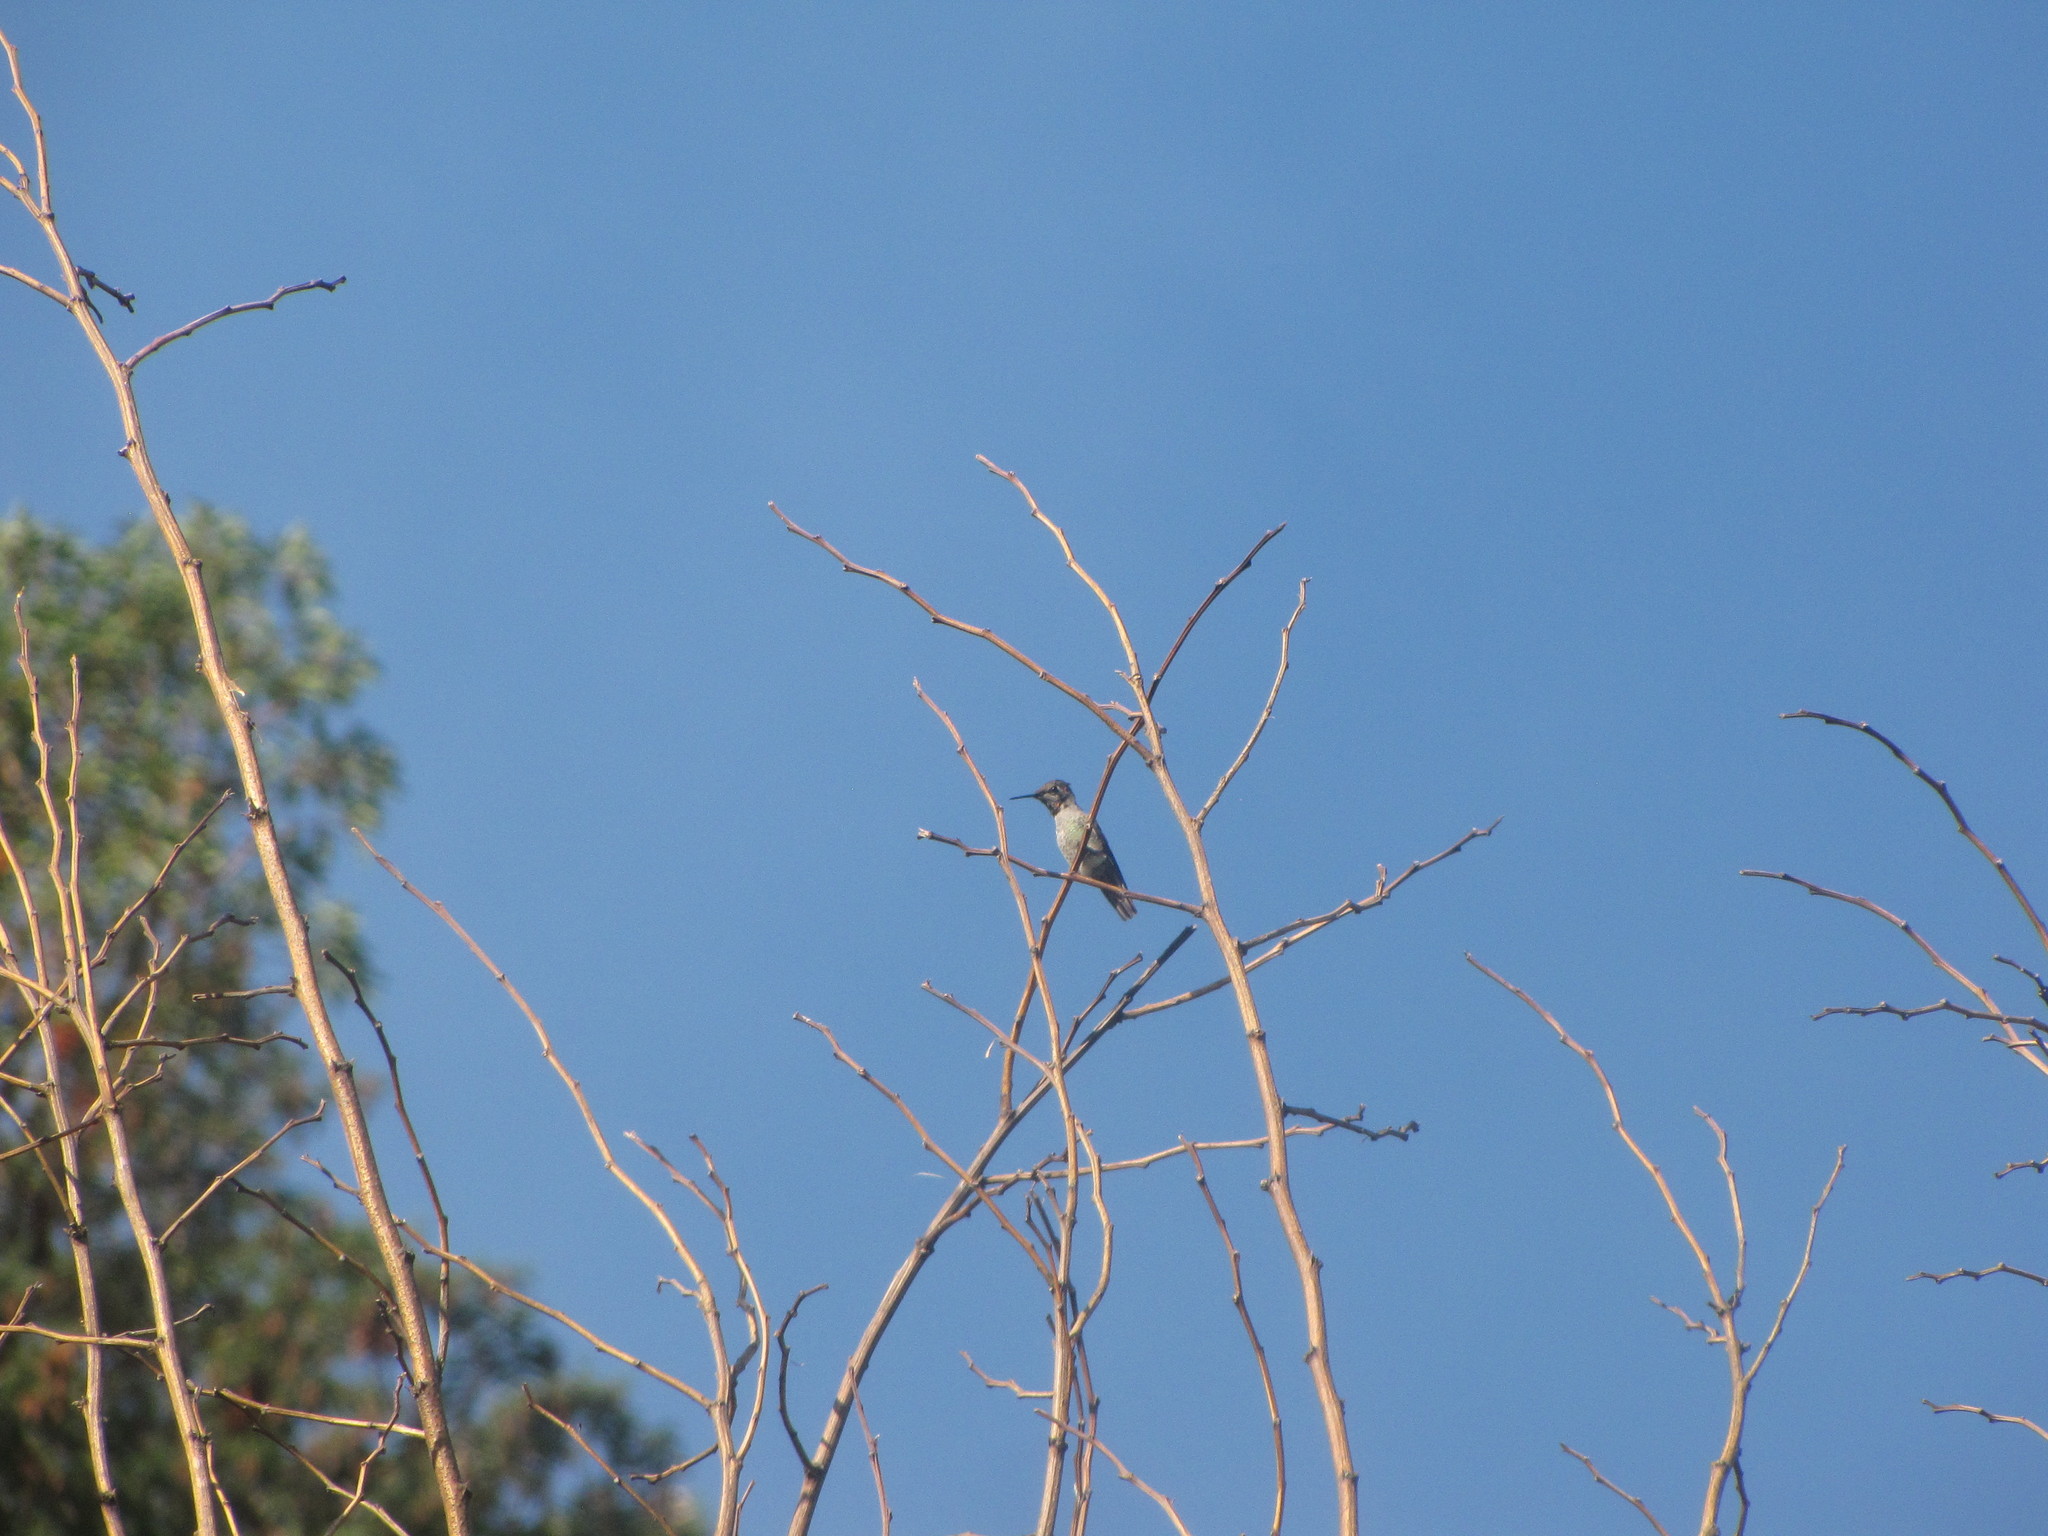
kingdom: Animalia
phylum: Chordata
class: Aves
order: Apodiformes
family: Trochilidae
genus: Calypte
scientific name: Calypte anna
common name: Anna's hummingbird
